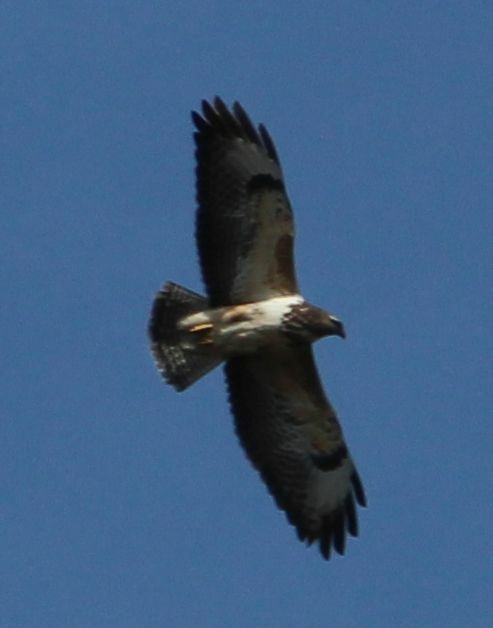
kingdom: Animalia
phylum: Chordata
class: Aves
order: Accipitriformes
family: Accipitridae
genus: Buteo
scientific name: Buteo buteo
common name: Common buzzard
